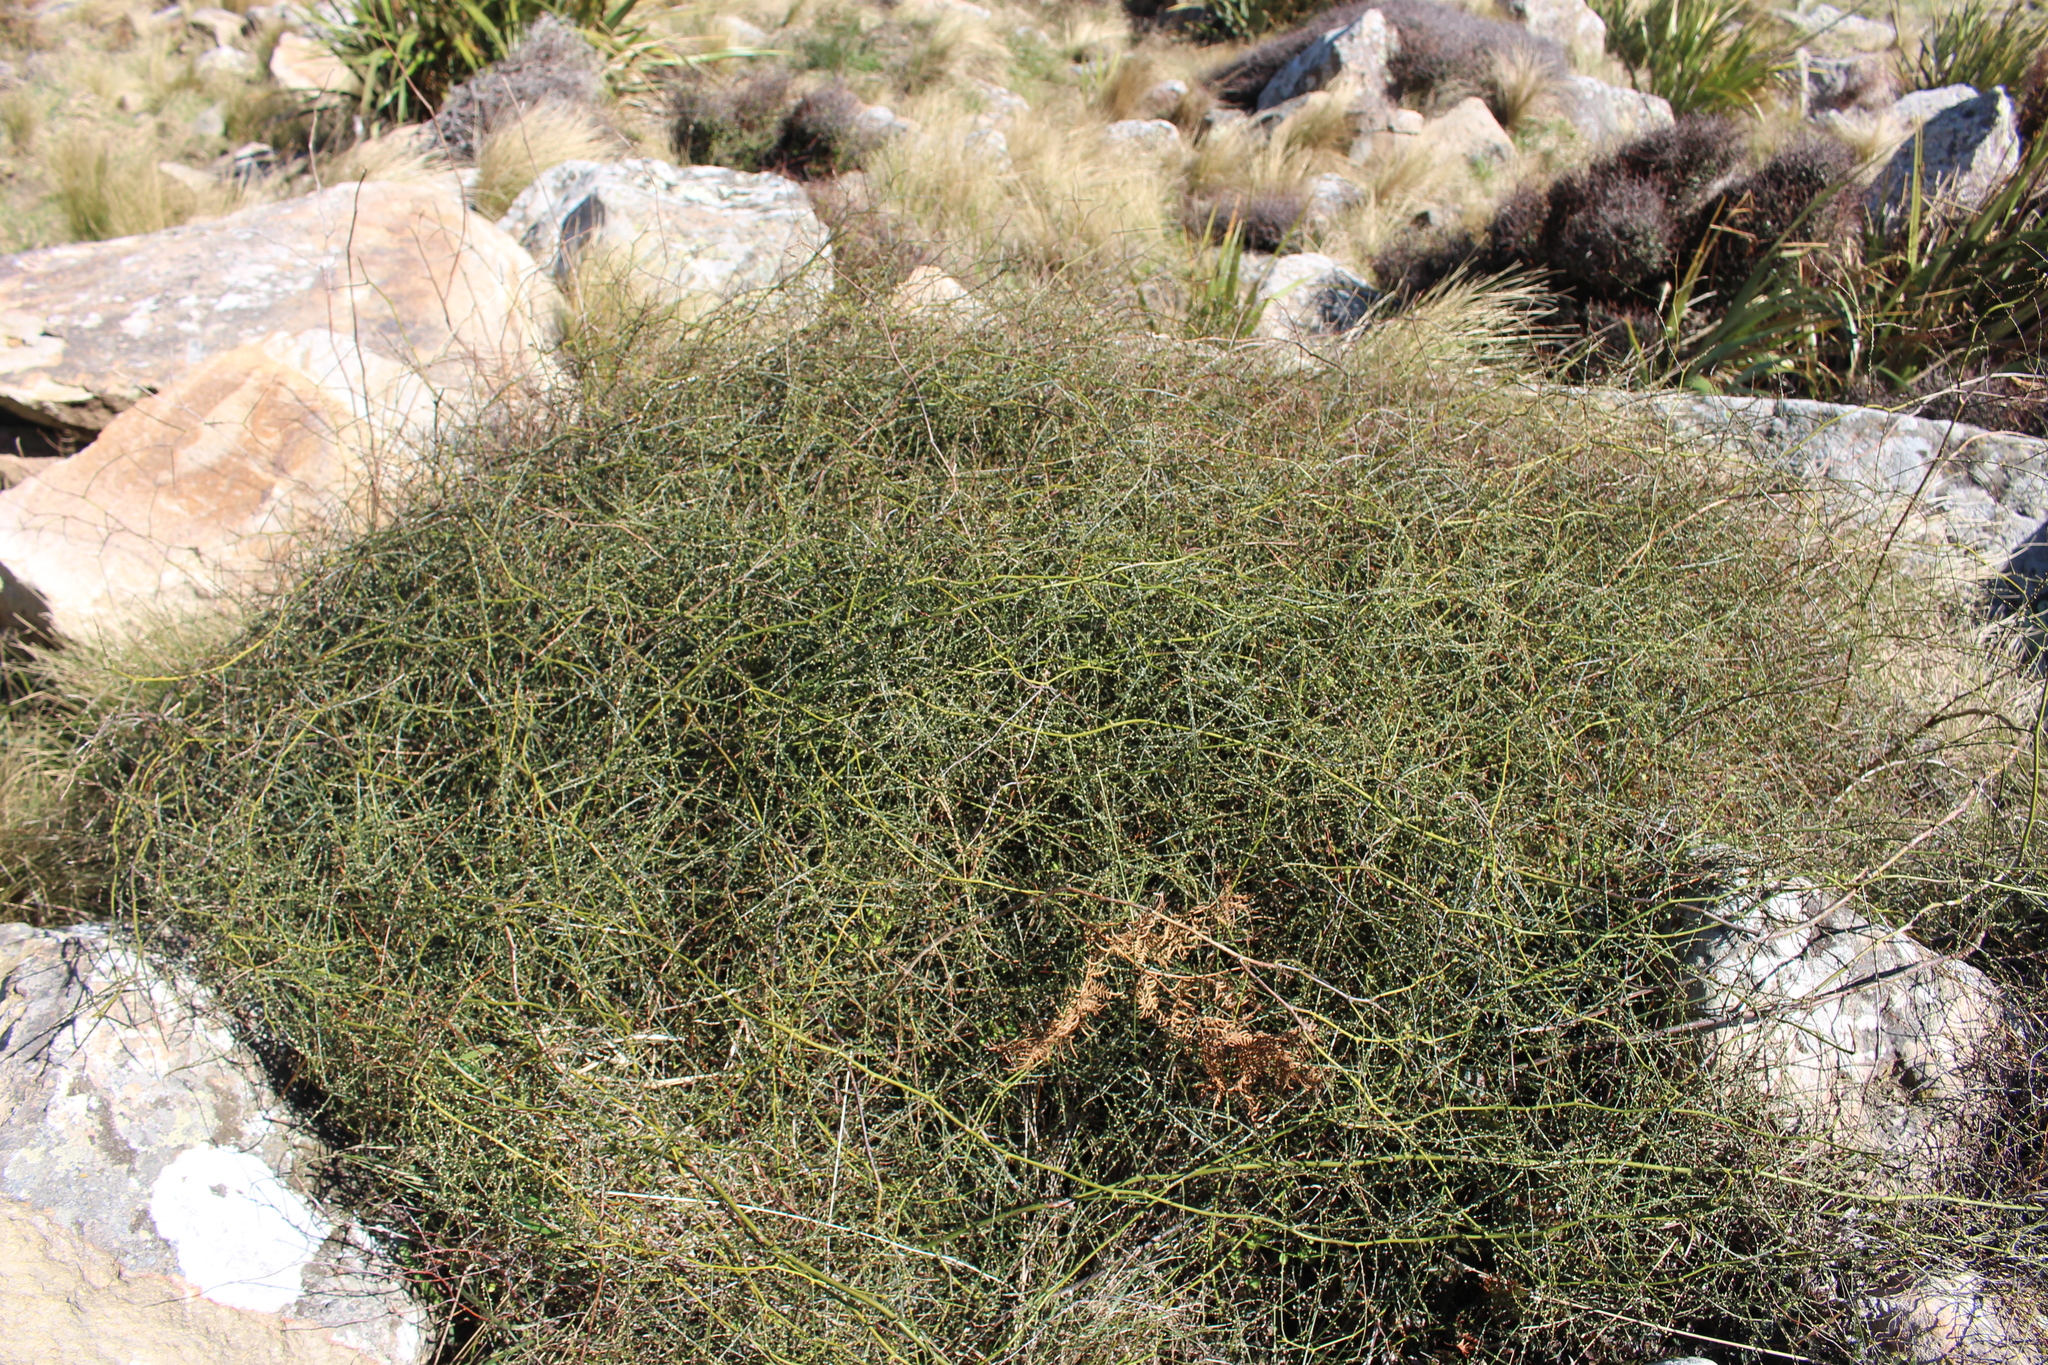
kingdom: Plantae
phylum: Tracheophyta
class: Magnoliopsida
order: Rosales
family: Rosaceae
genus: Rubus
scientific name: Rubus squarrosus
